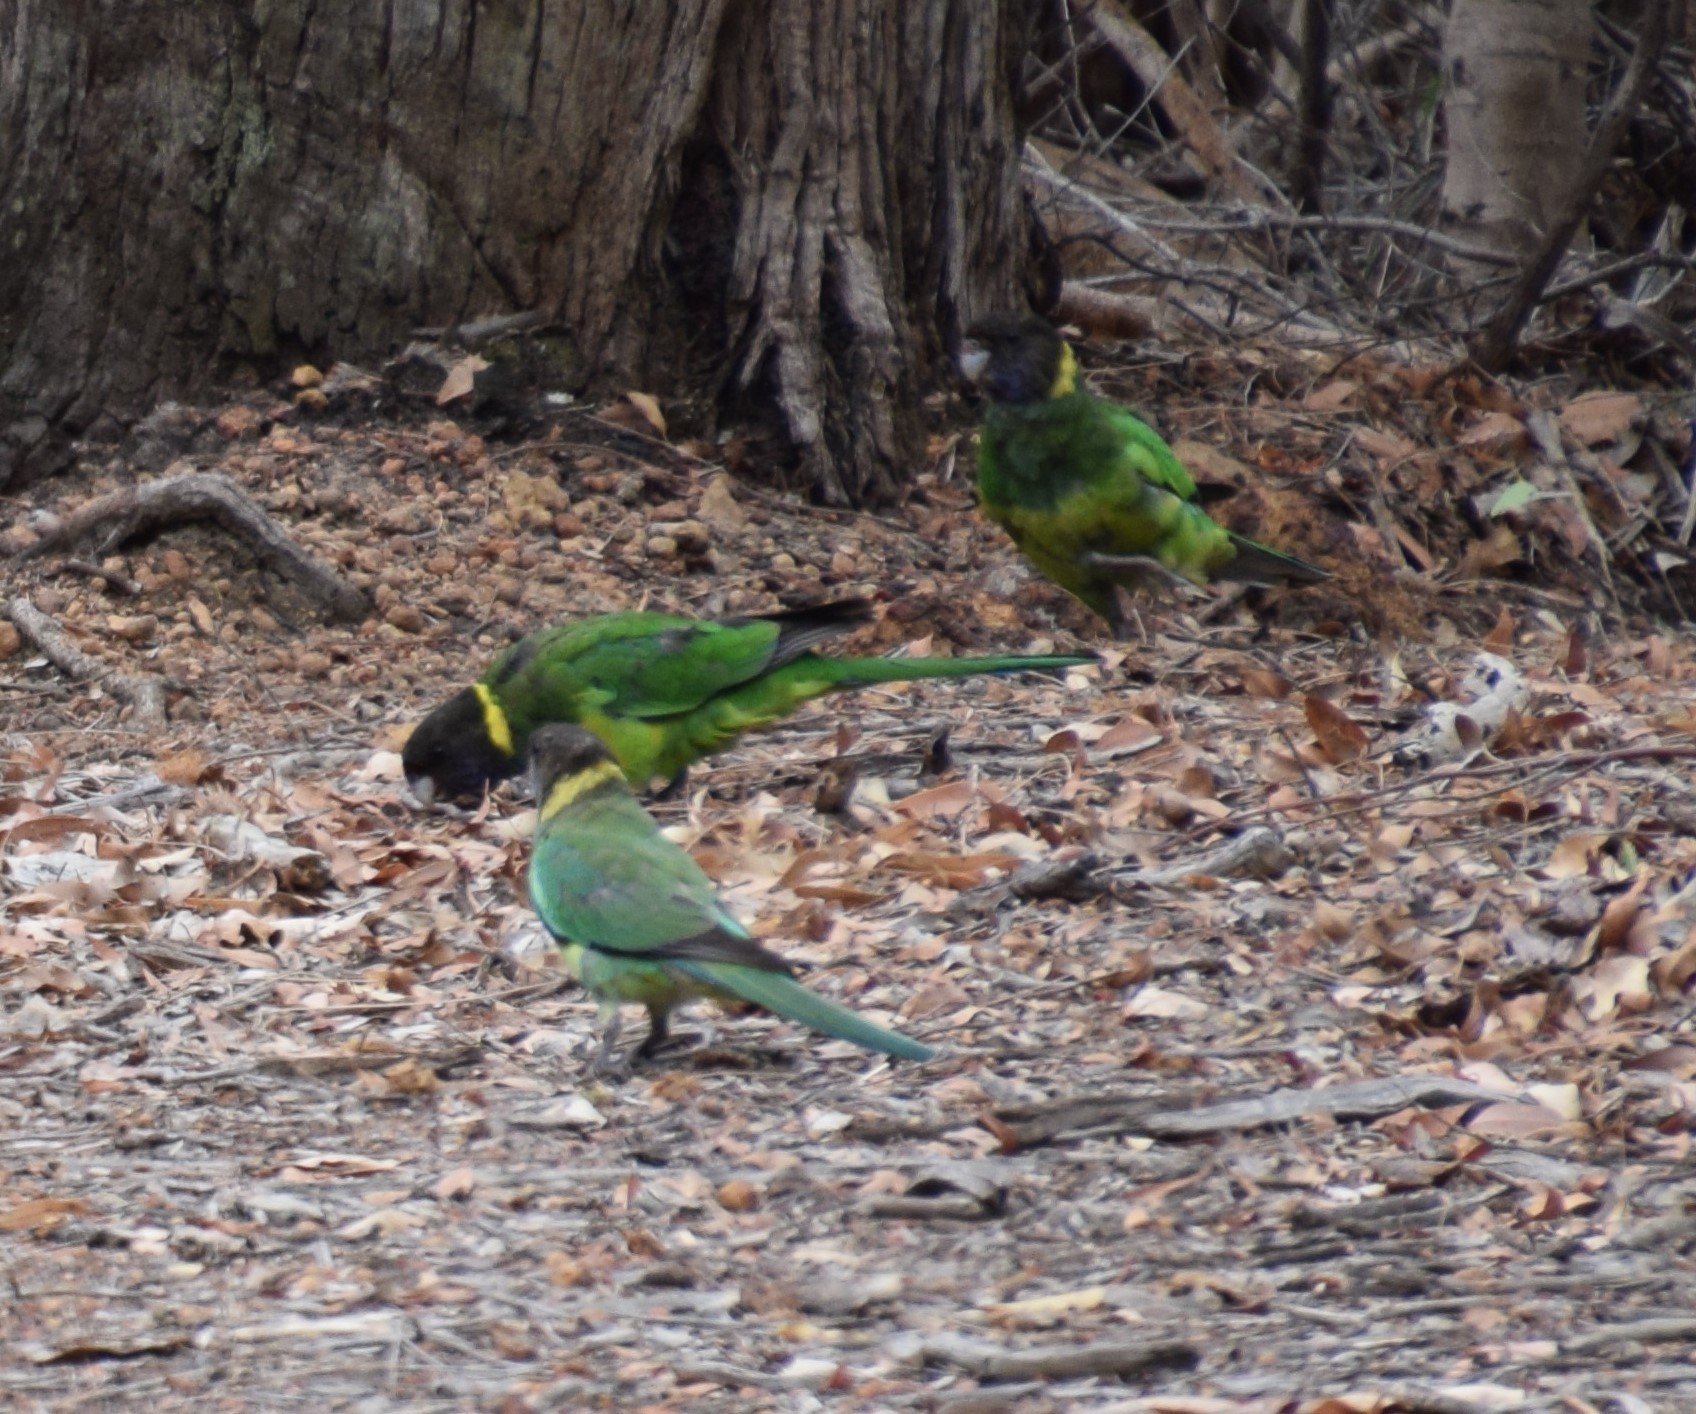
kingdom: Animalia
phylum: Chordata
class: Aves
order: Psittaciformes
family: Psittacidae
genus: Barnardius
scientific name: Barnardius zonarius
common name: Australian ringneck
